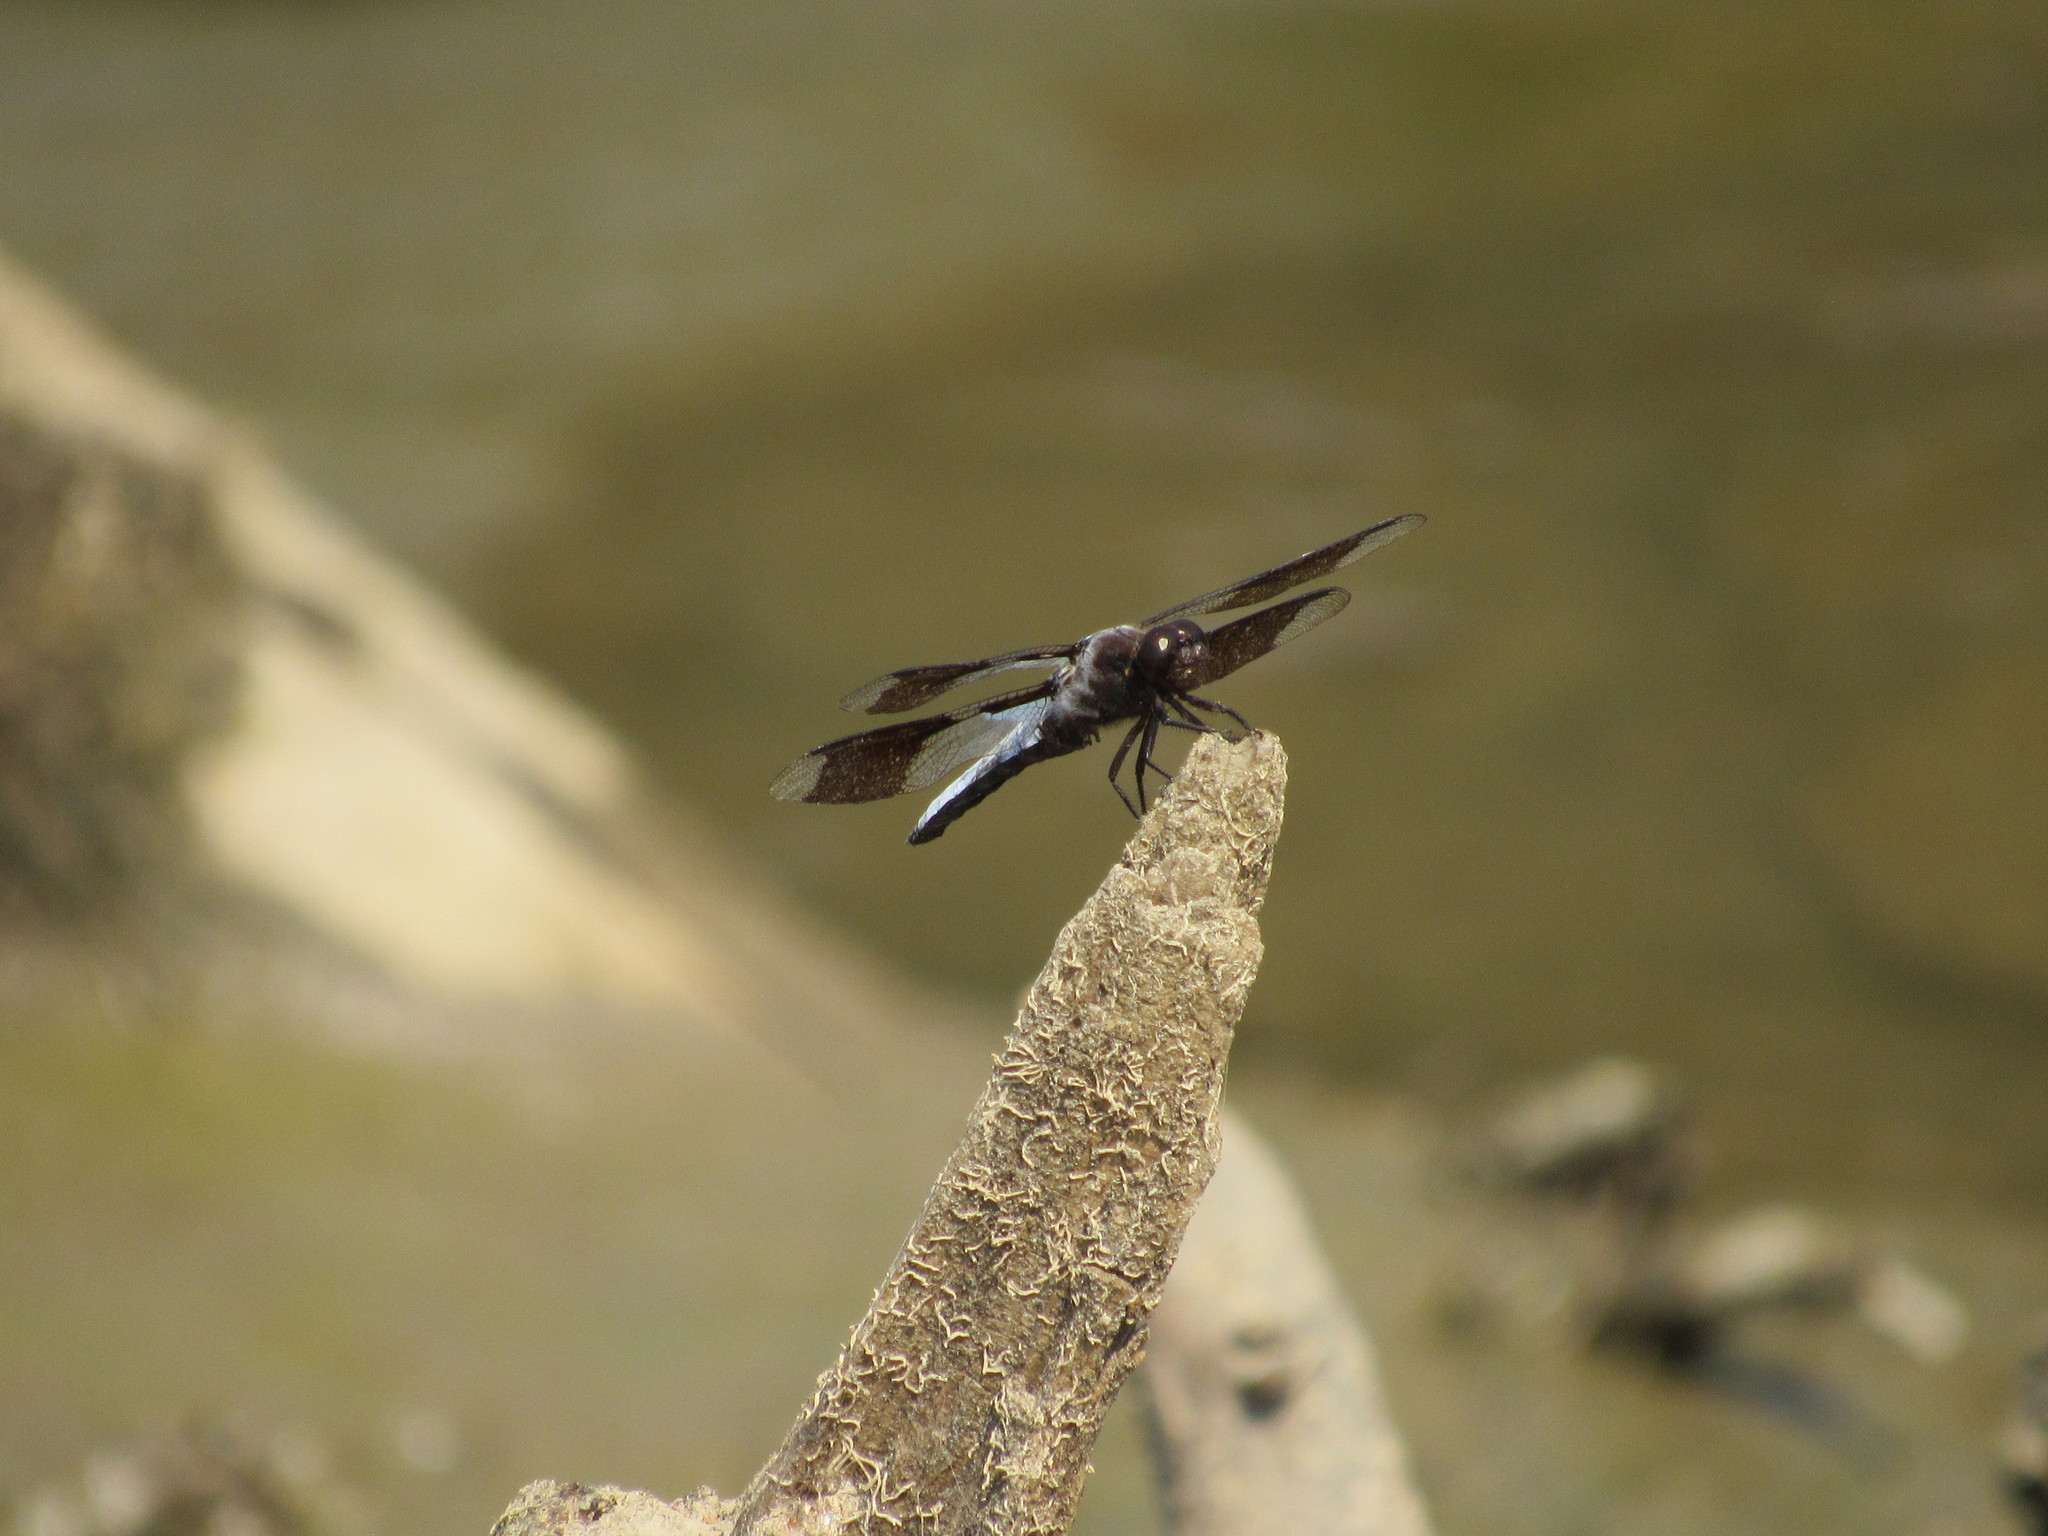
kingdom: Animalia
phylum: Arthropoda
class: Insecta
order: Odonata
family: Libellulidae
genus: Plathemis
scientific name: Plathemis lydia
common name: Common whitetail
